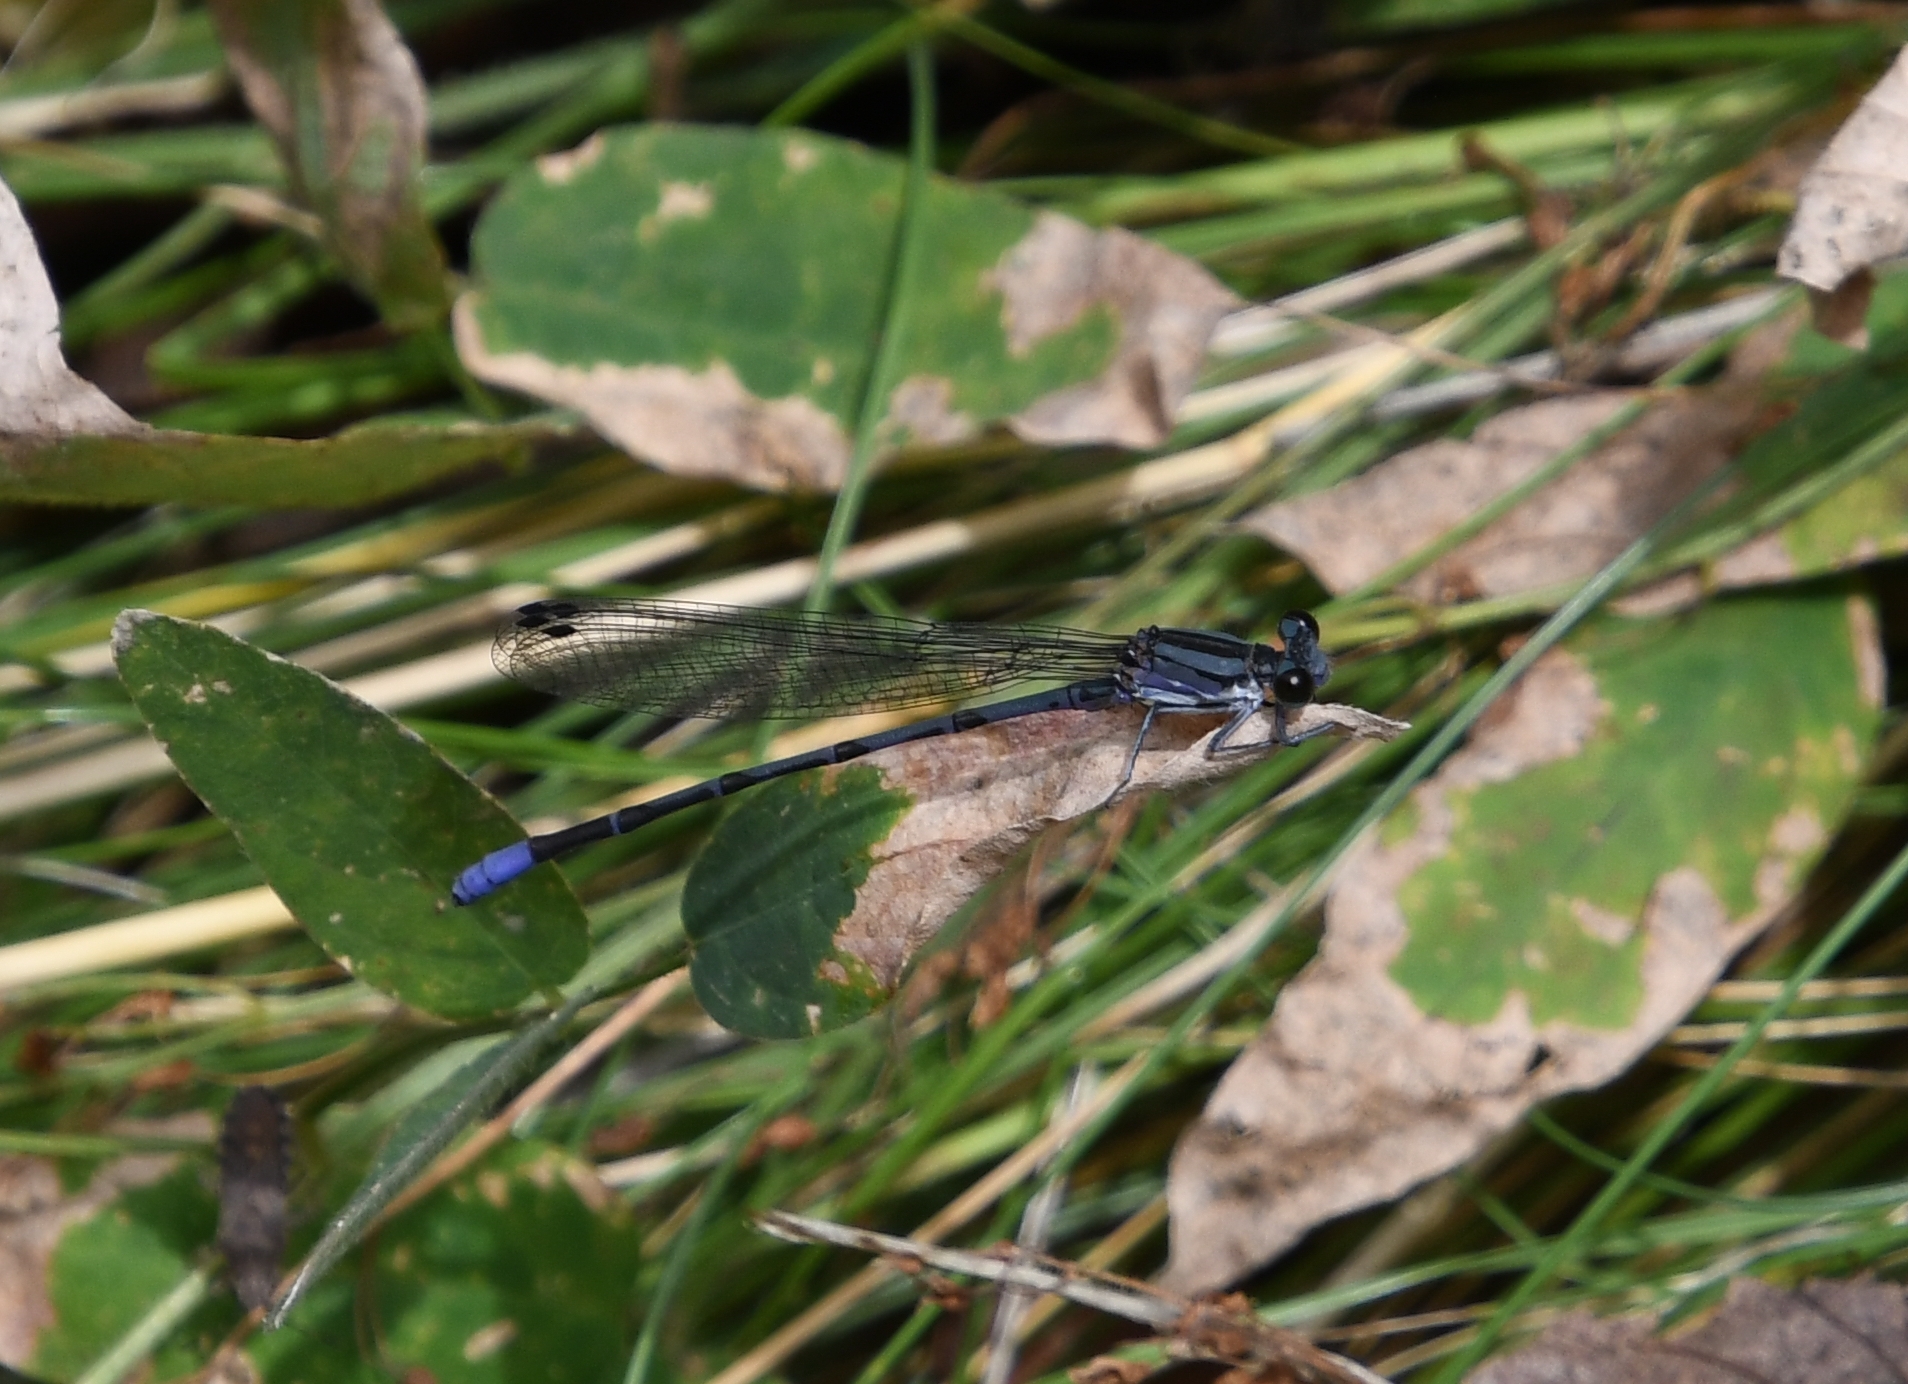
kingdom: Animalia
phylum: Arthropoda
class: Insecta
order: Odonata
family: Coenagrionidae
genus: Argia
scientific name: Argia funebris
